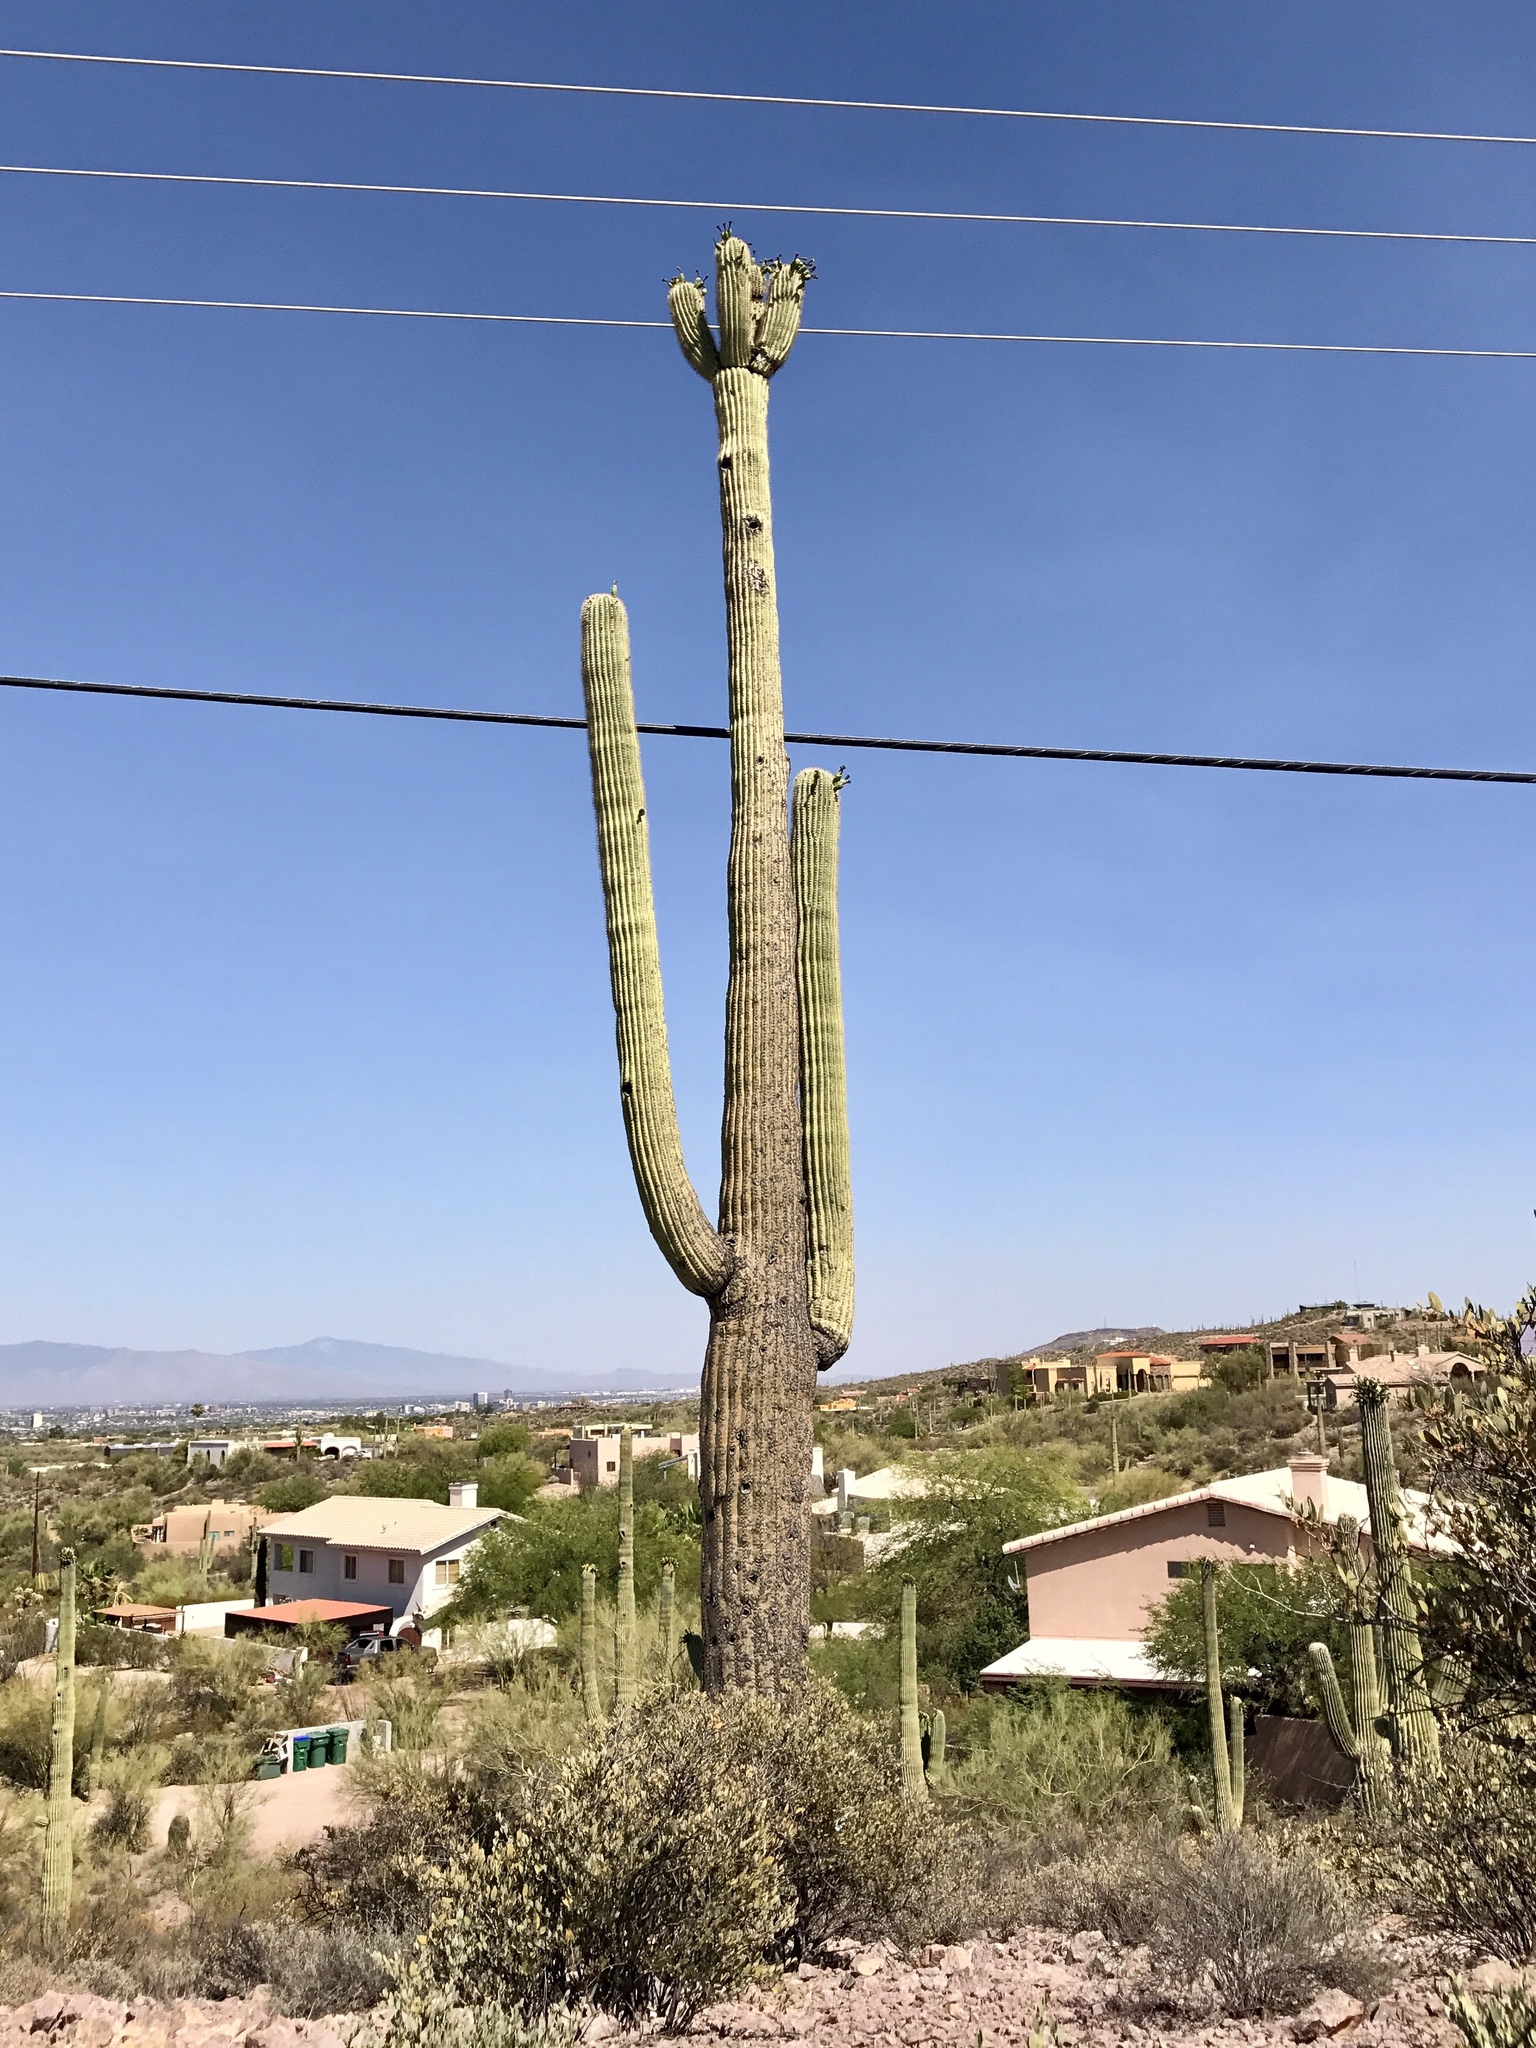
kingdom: Plantae
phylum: Tracheophyta
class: Magnoliopsida
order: Caryophyllales
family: Cactaceae
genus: Carnegiea
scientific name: Carnegiea gigantea
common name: Saguaro
